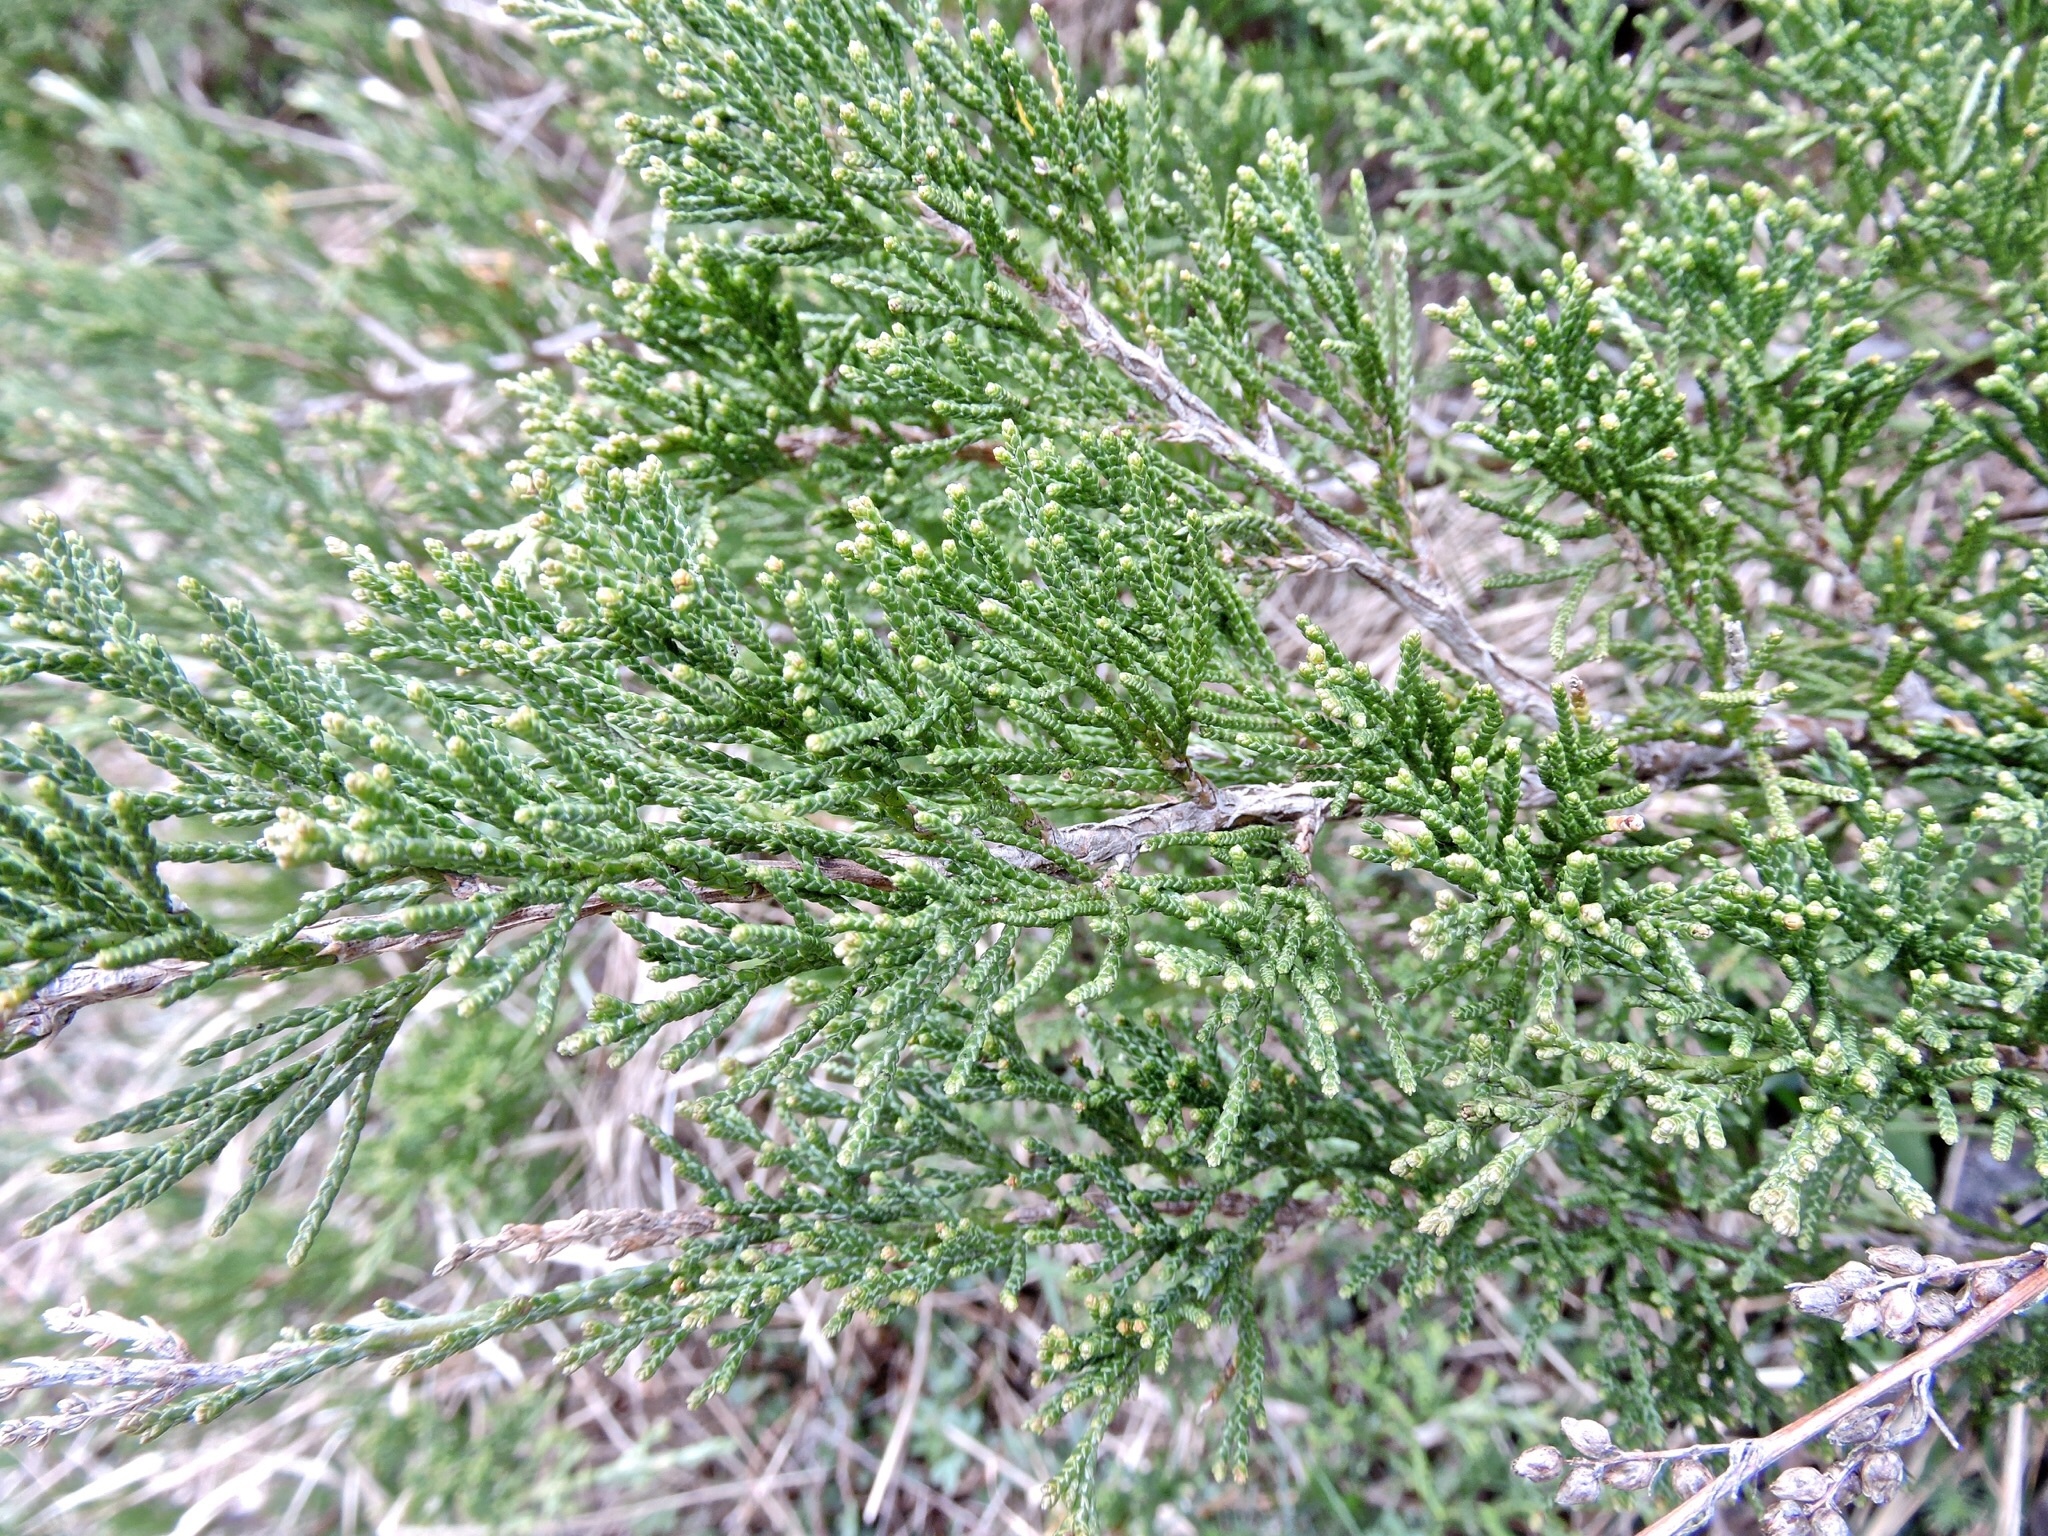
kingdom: Plantae
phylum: Tracheophyta
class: Pinopsida
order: Pinales
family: Cupressaceae
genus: Juniperus
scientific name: Juniperus sabina
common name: Savin
